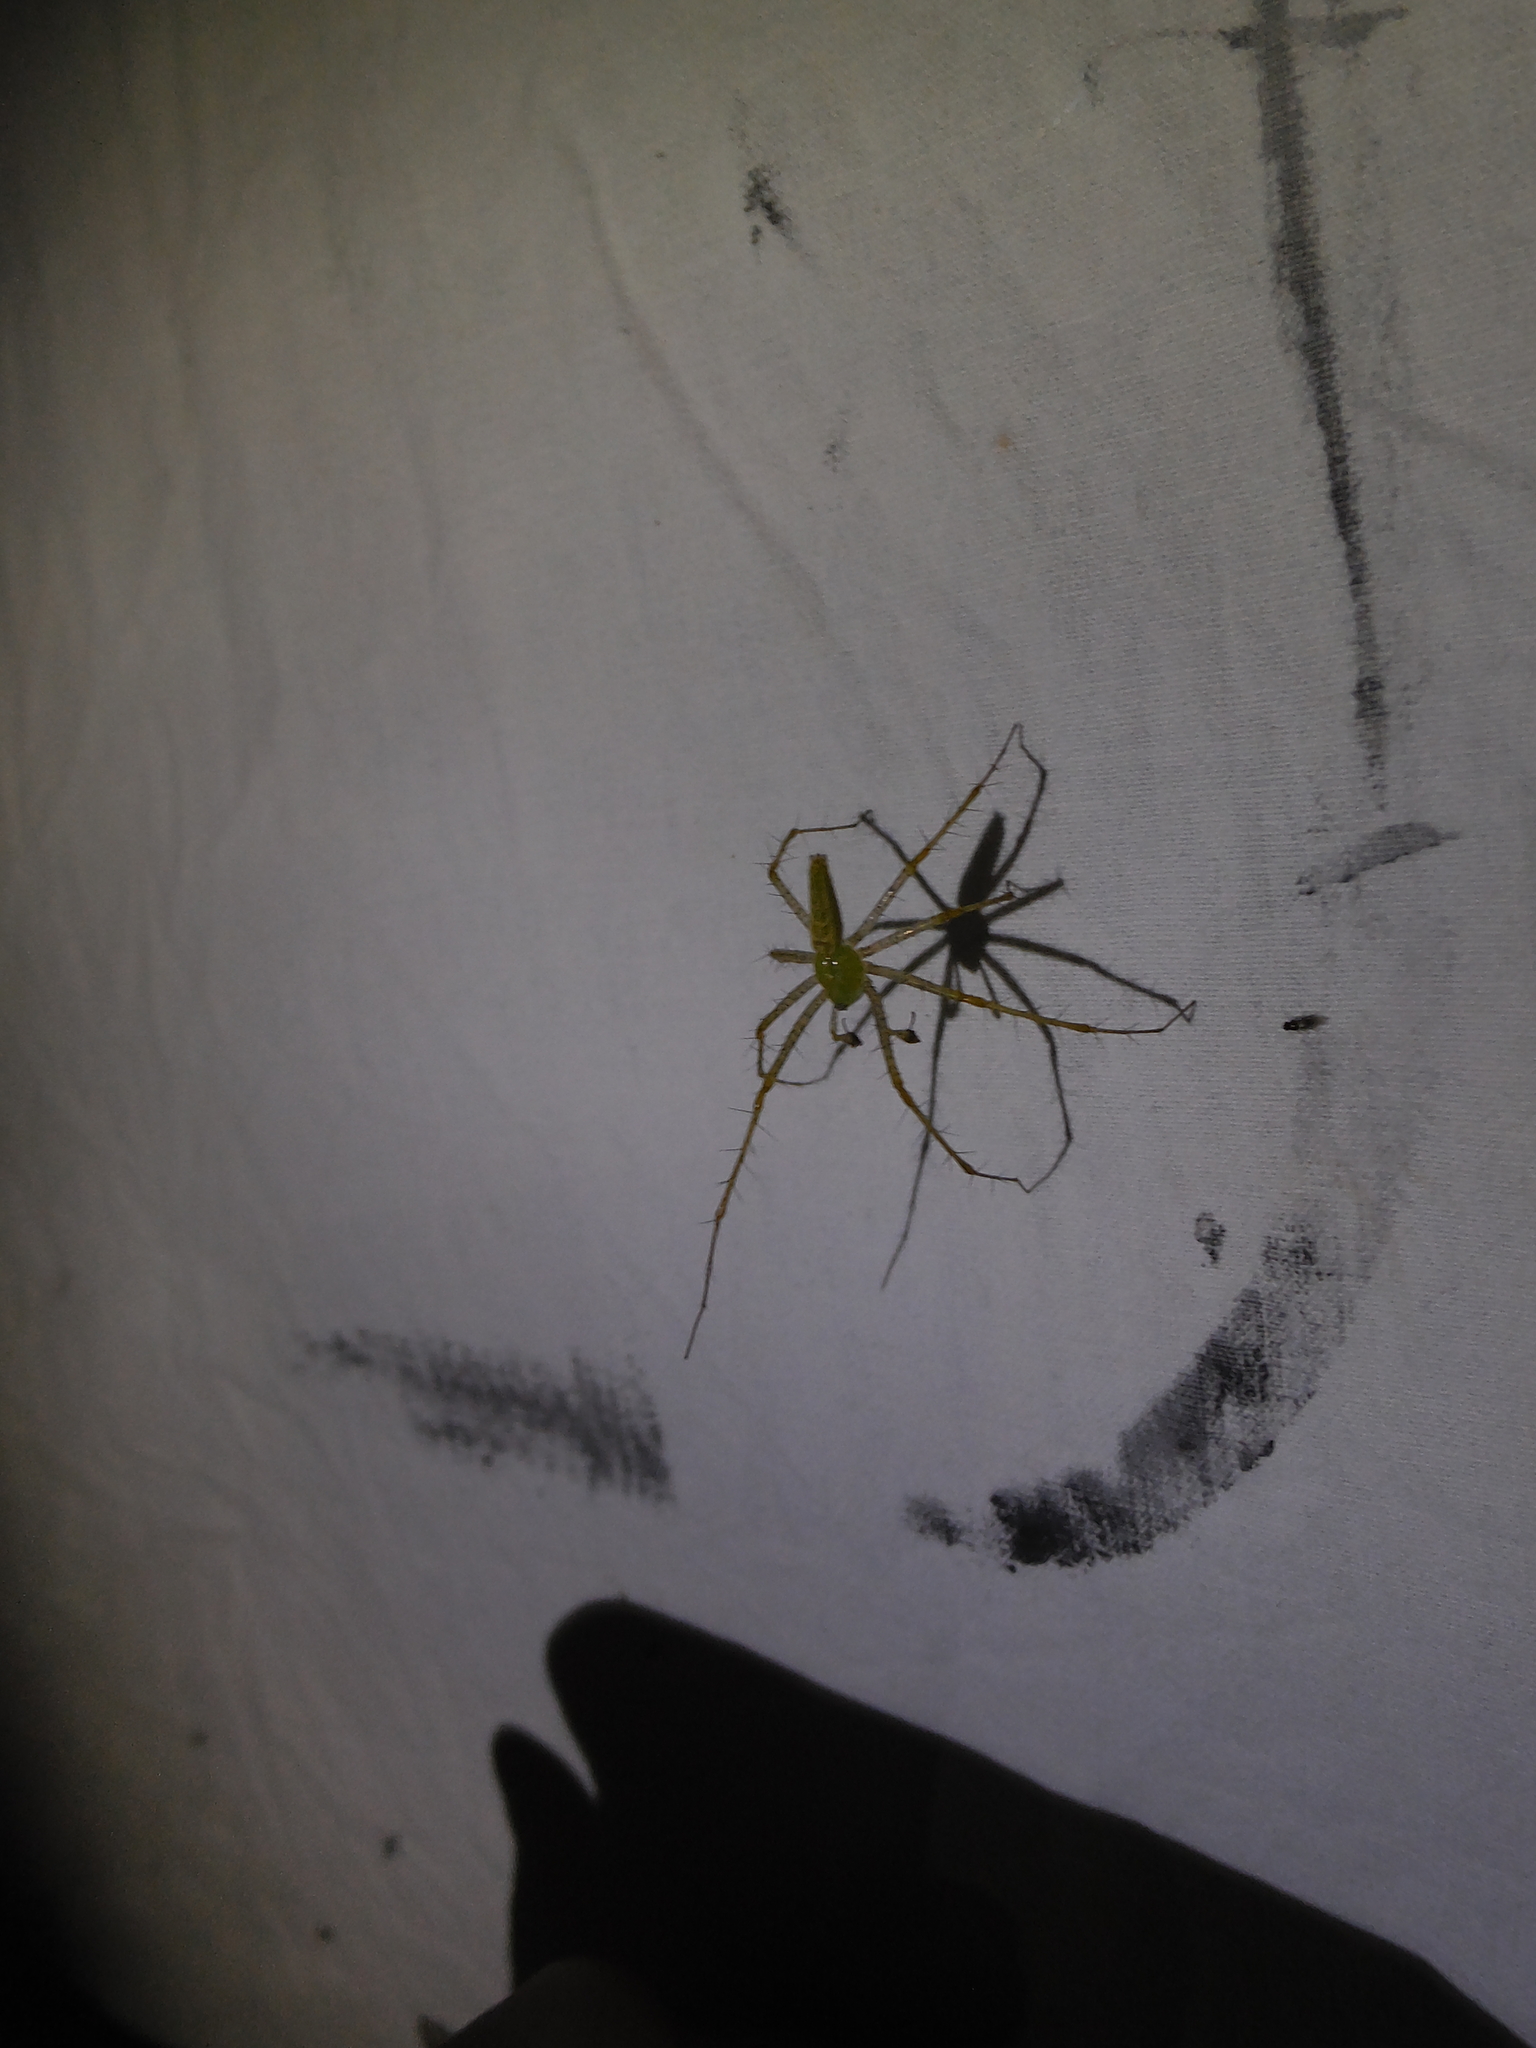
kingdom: Animalia
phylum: Arthropoda
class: Arachnida
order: Araneae
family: Oxyopidae
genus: Peucetia
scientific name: Peucetia viridans
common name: Lynx spiders
